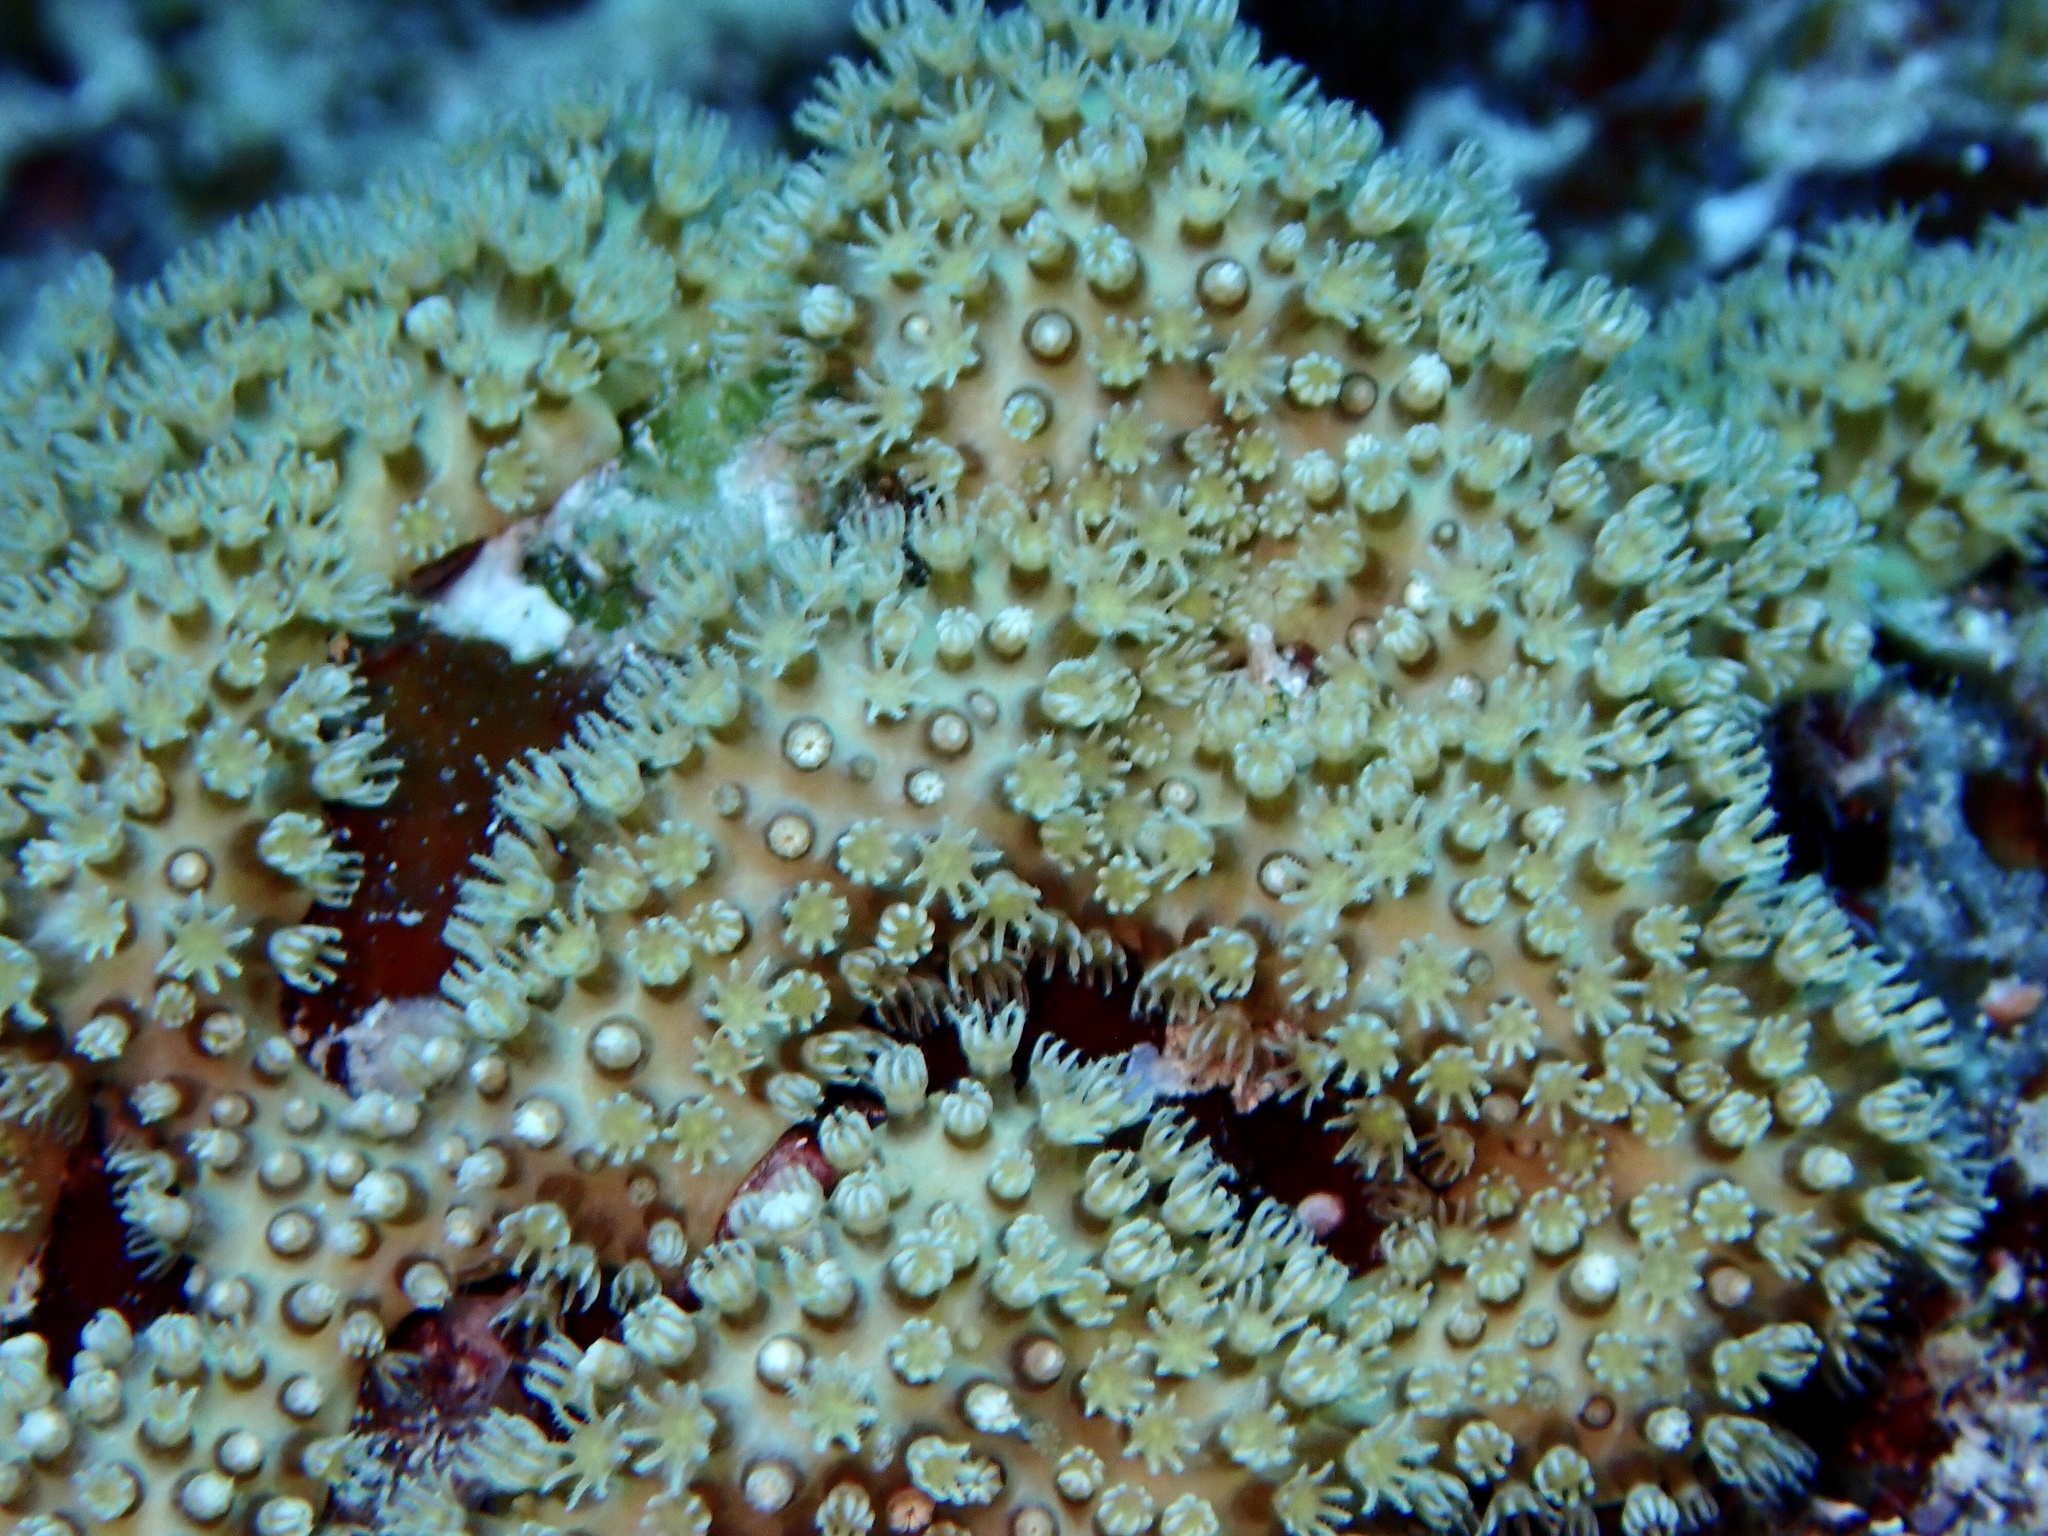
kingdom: Animalia
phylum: Cnidaria
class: Anthozoa
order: Malacalcyonacea
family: Lemnaliadae
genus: Rhytisma
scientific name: Rhytisma fulvum
